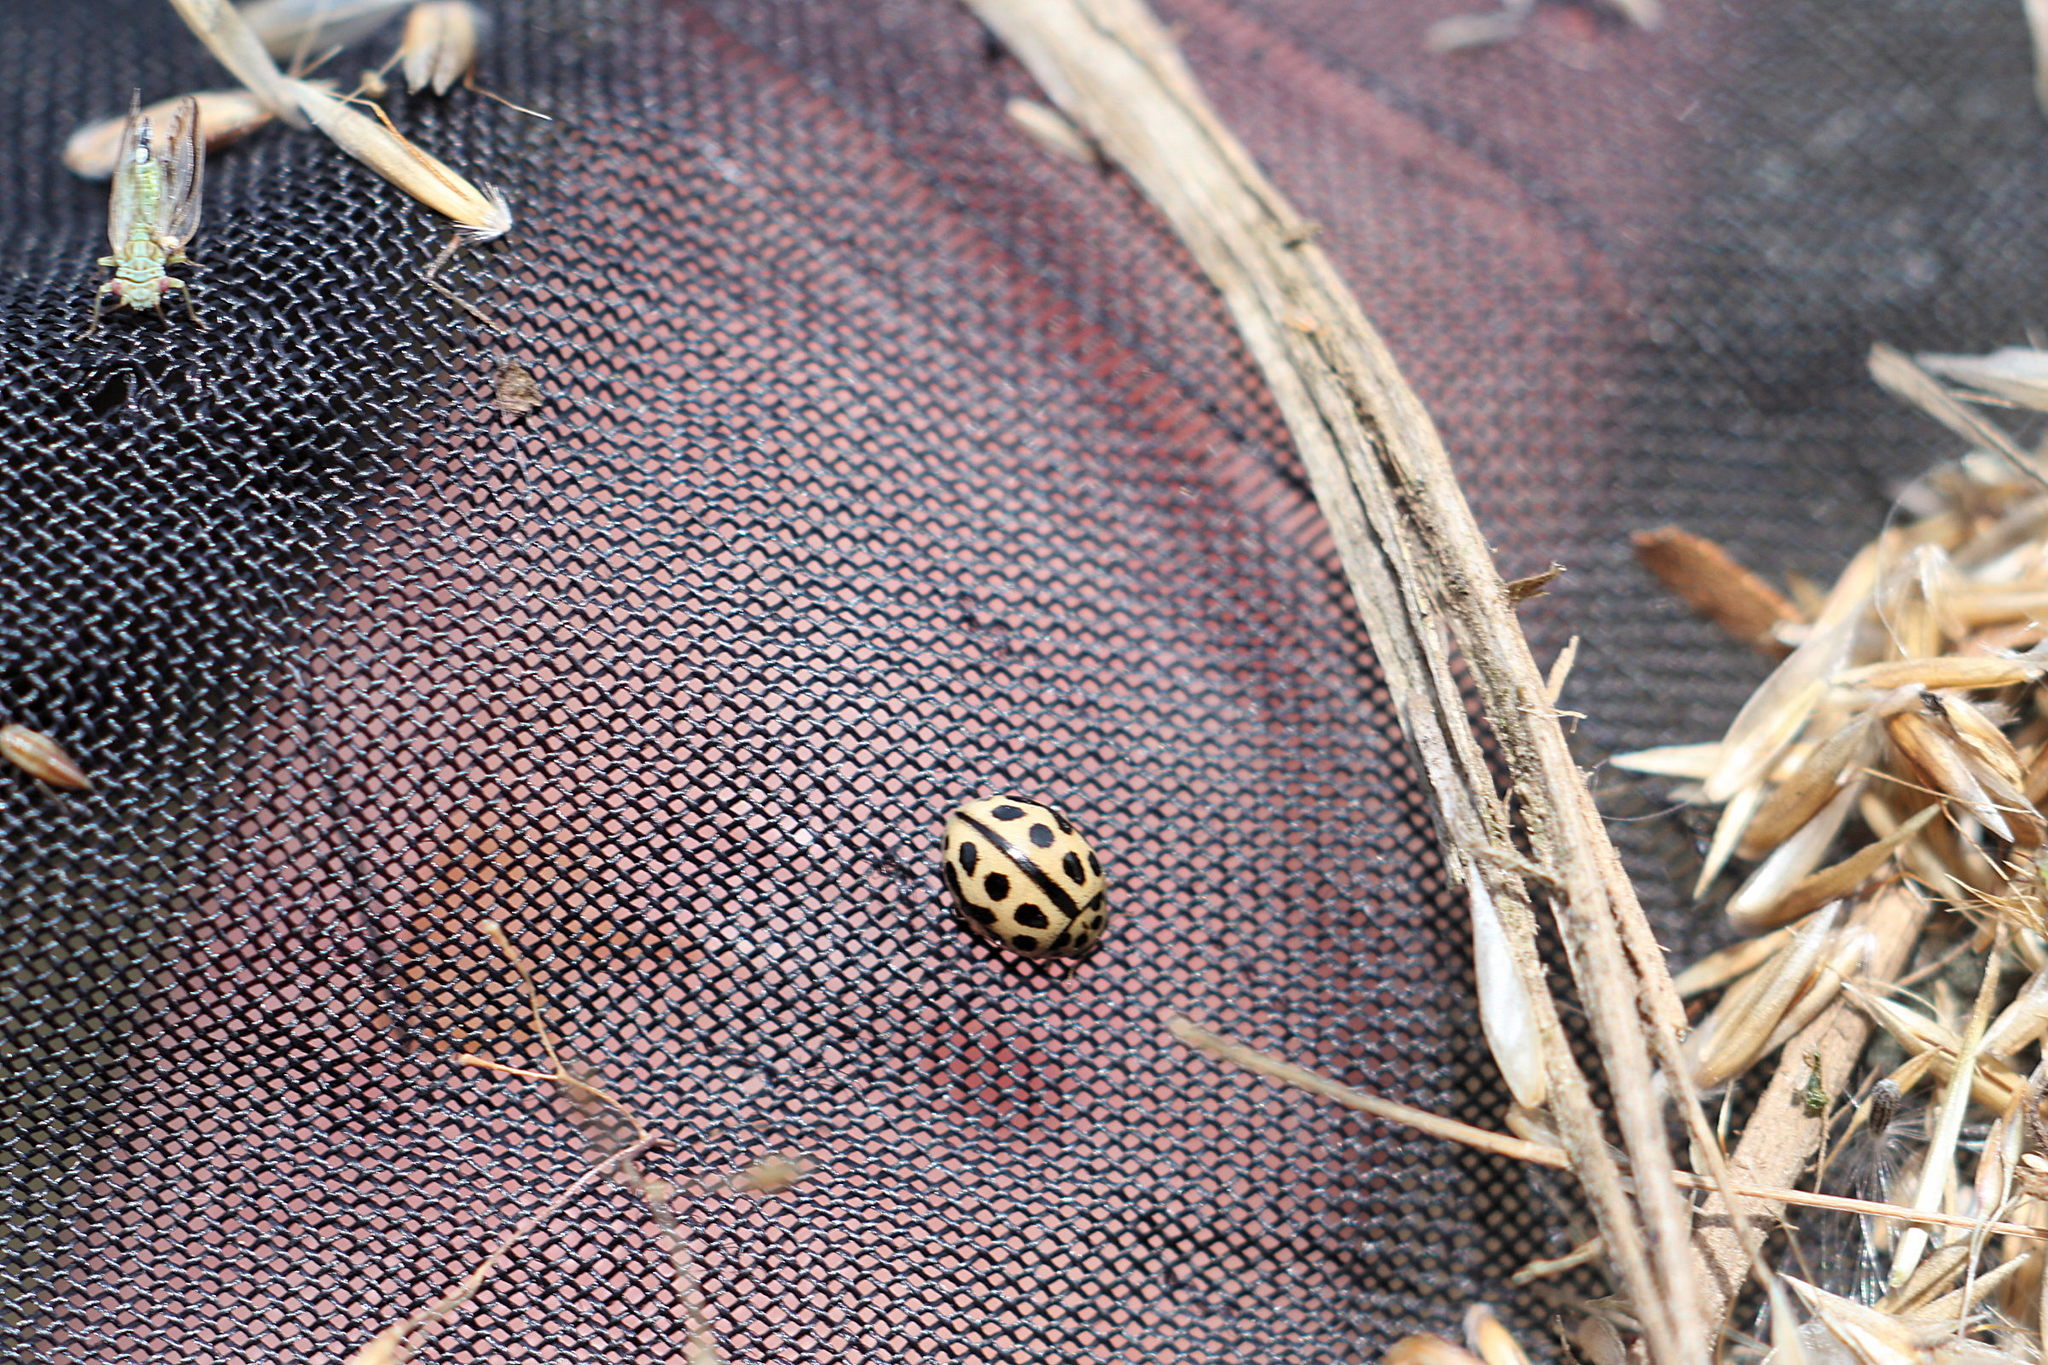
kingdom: Animalia
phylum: Arthropoda
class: Insecta
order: Coleoptera
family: Coccinellidae
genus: Tytthaspis
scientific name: Tytthaspis sedecimpunctata
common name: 16-spot ladybird
